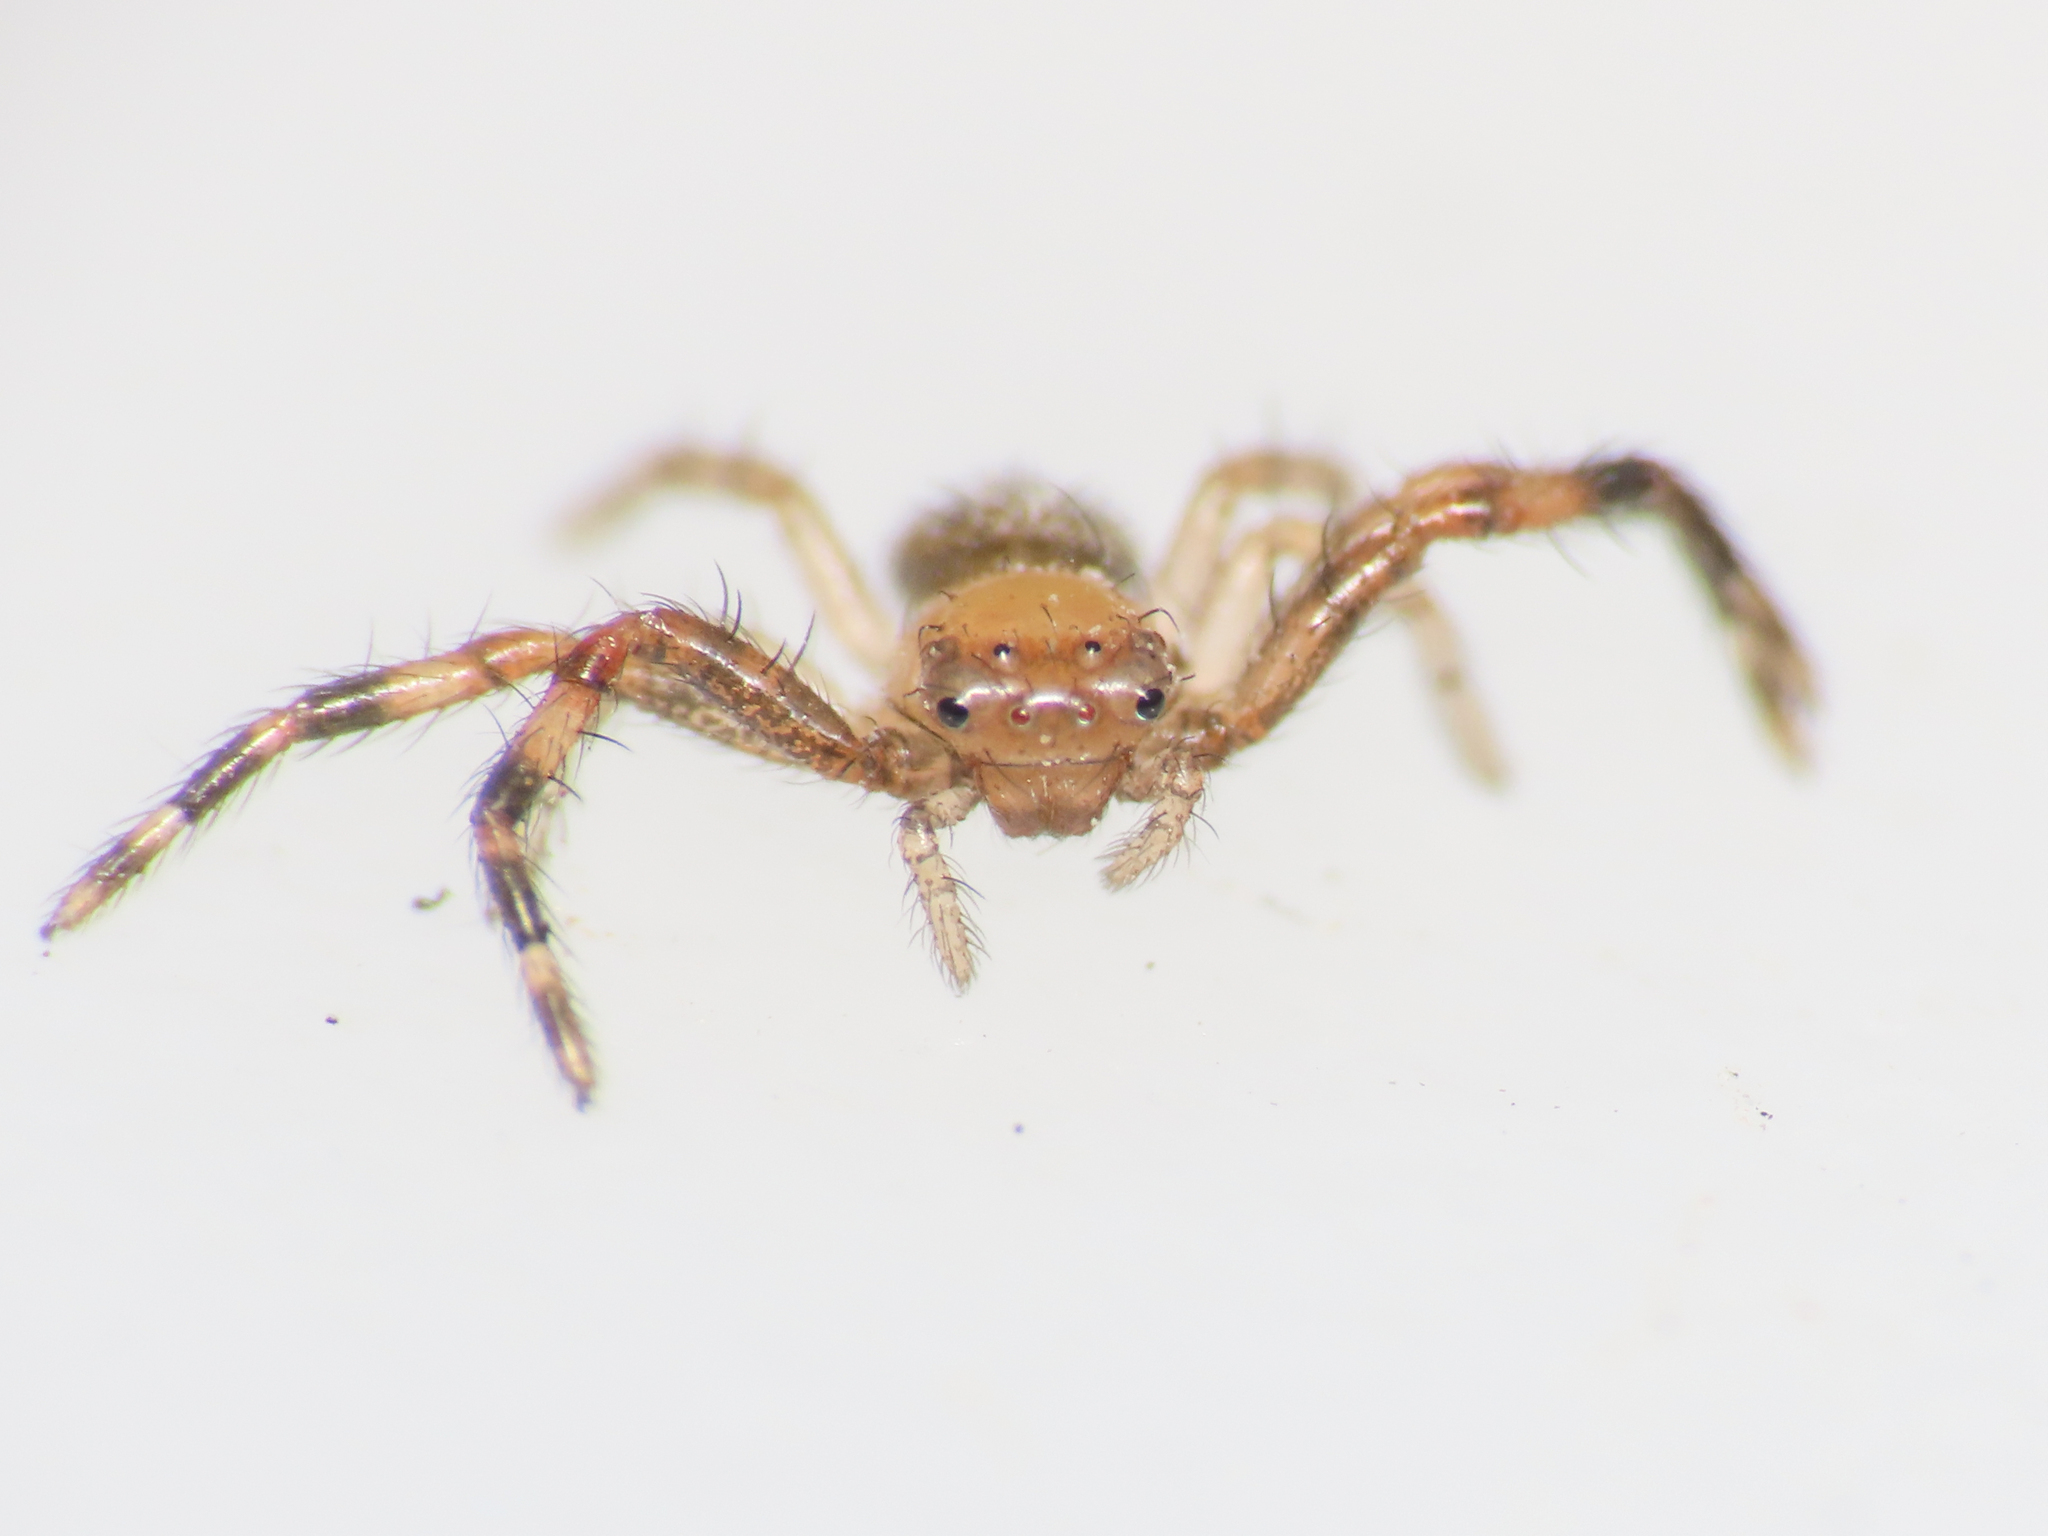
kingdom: Animalia
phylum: Arthropoda
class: Arachnida
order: Araneae
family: Thomisidae
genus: Synema
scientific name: Synema globosum
